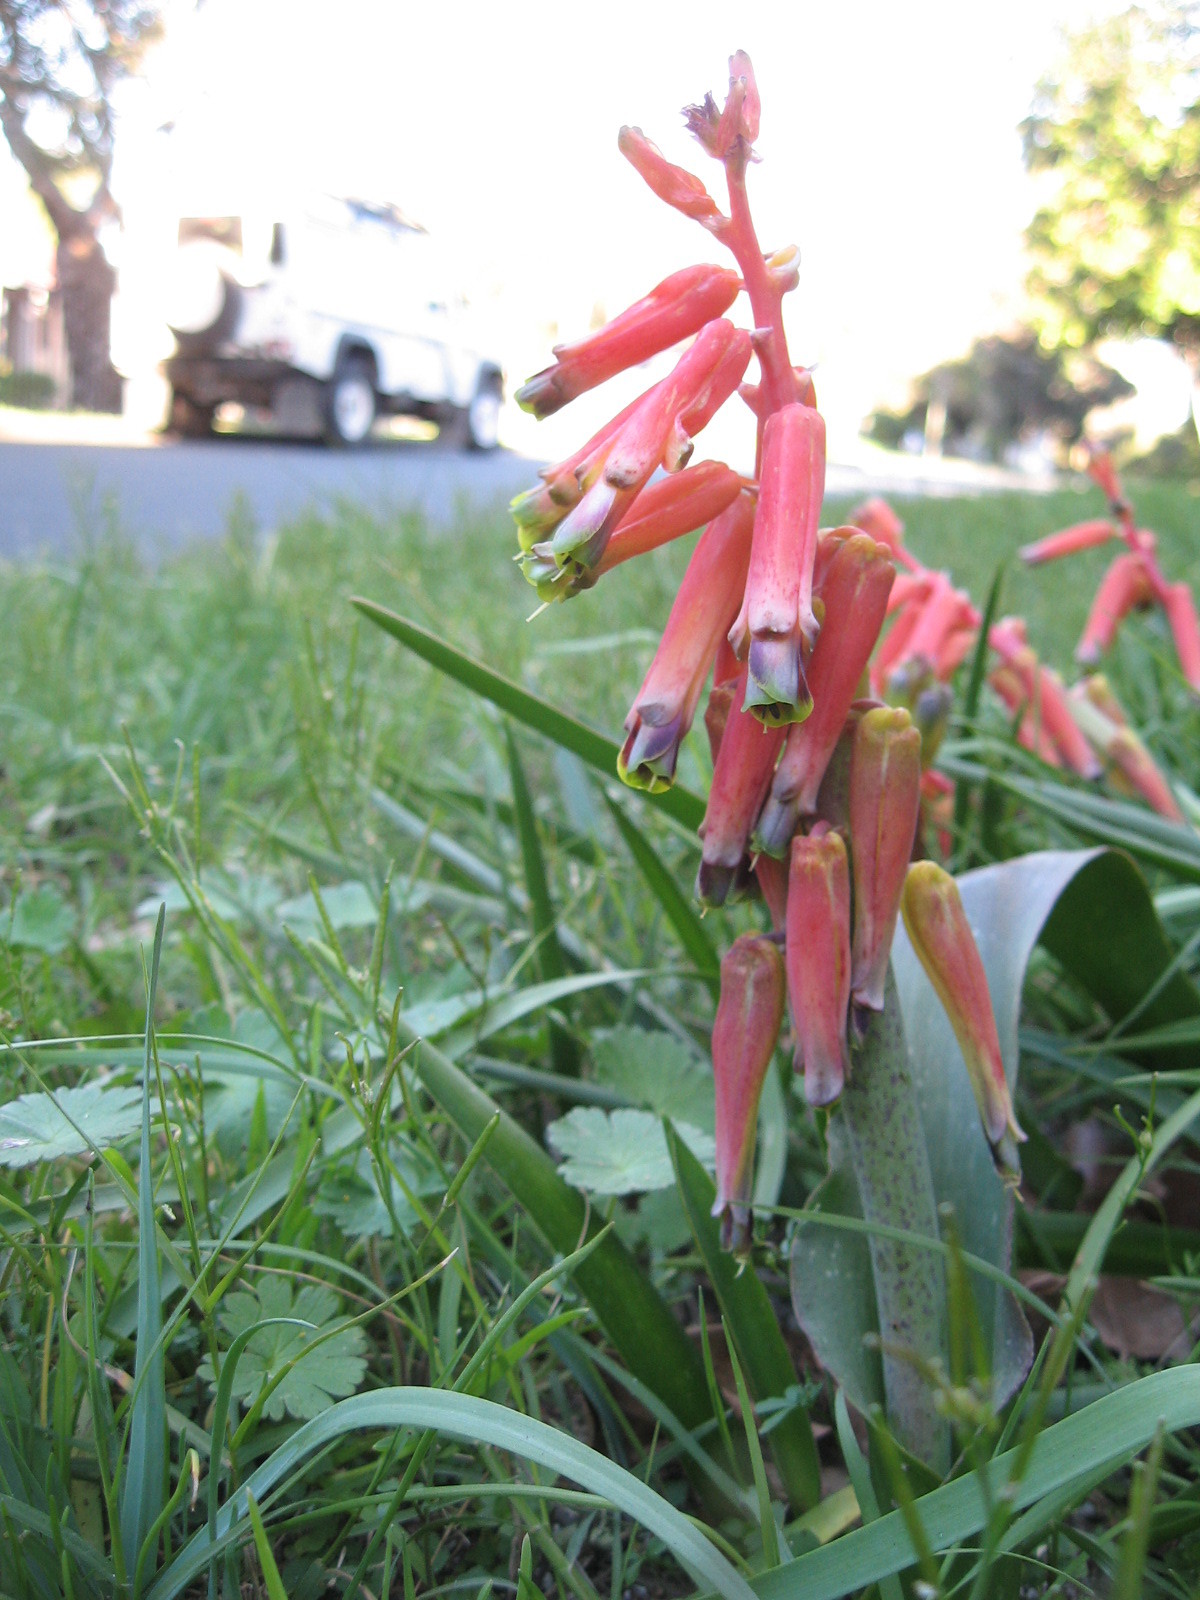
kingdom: Plantae
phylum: Tracheophyta
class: Liliopsida
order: Asparagales
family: Asparagaceae
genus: Lachenalia
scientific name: Lachenalia bulbifera
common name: Red lachenalia
